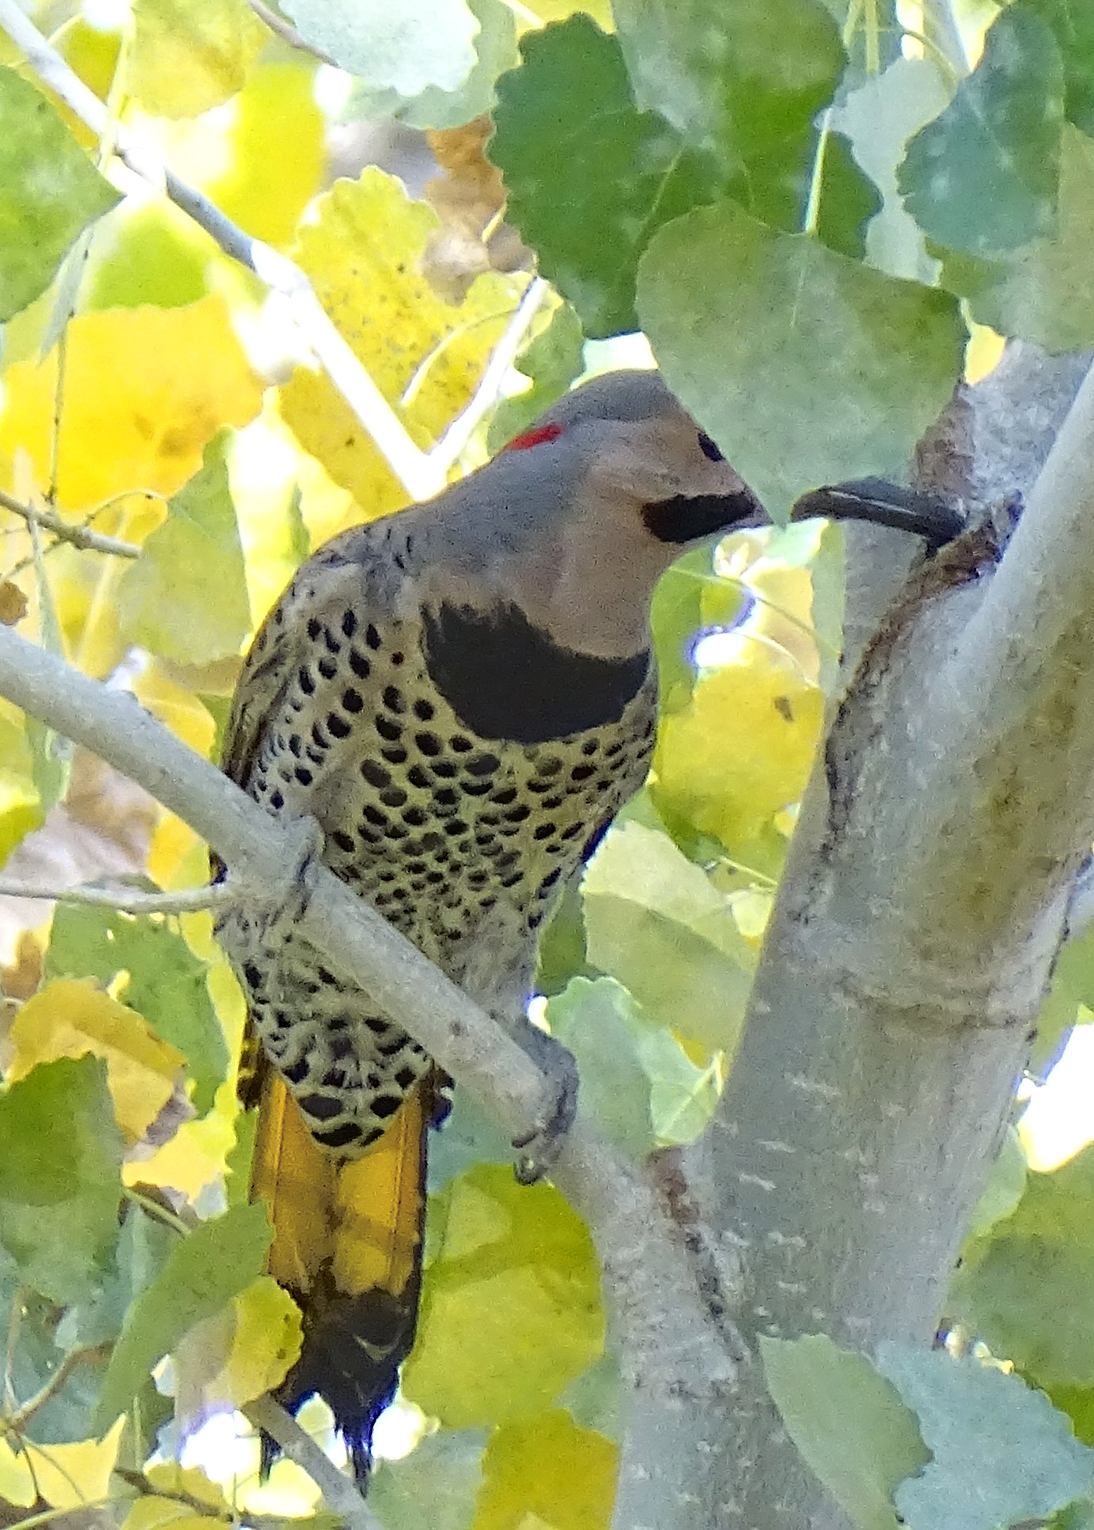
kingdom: Animalia
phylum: Chordata
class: Aves
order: Piciformes
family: Picidae
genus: Colaptes
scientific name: Colaptes auratus
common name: Northern flicker
